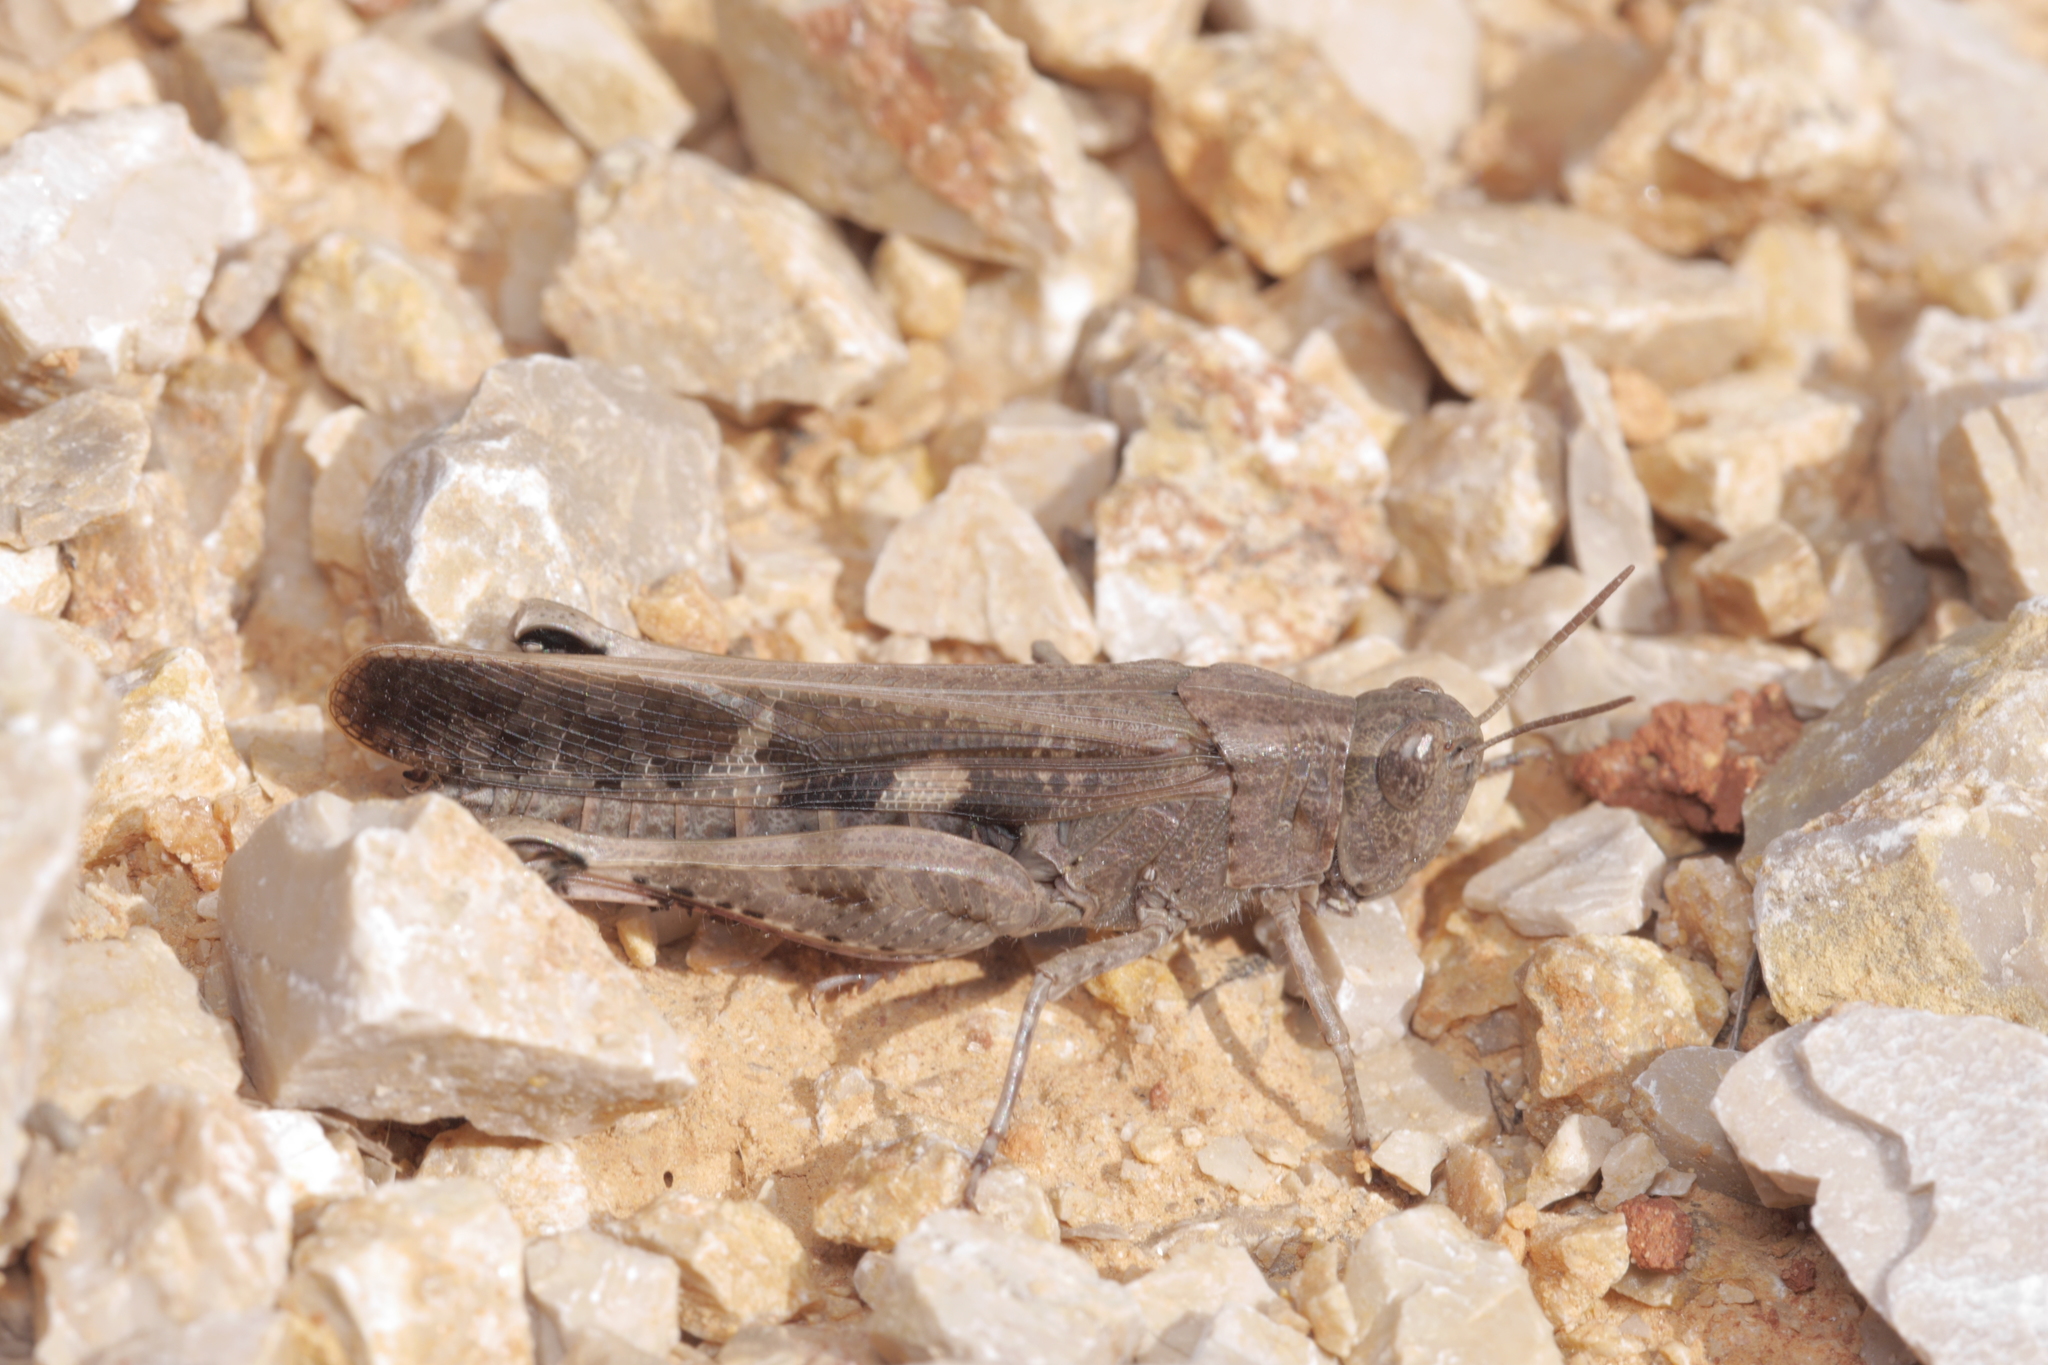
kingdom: Animalia
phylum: Arthropoda
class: Insecta
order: Orthoptera
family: Acrididae
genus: Aiolopus
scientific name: Aiolopus strepens
